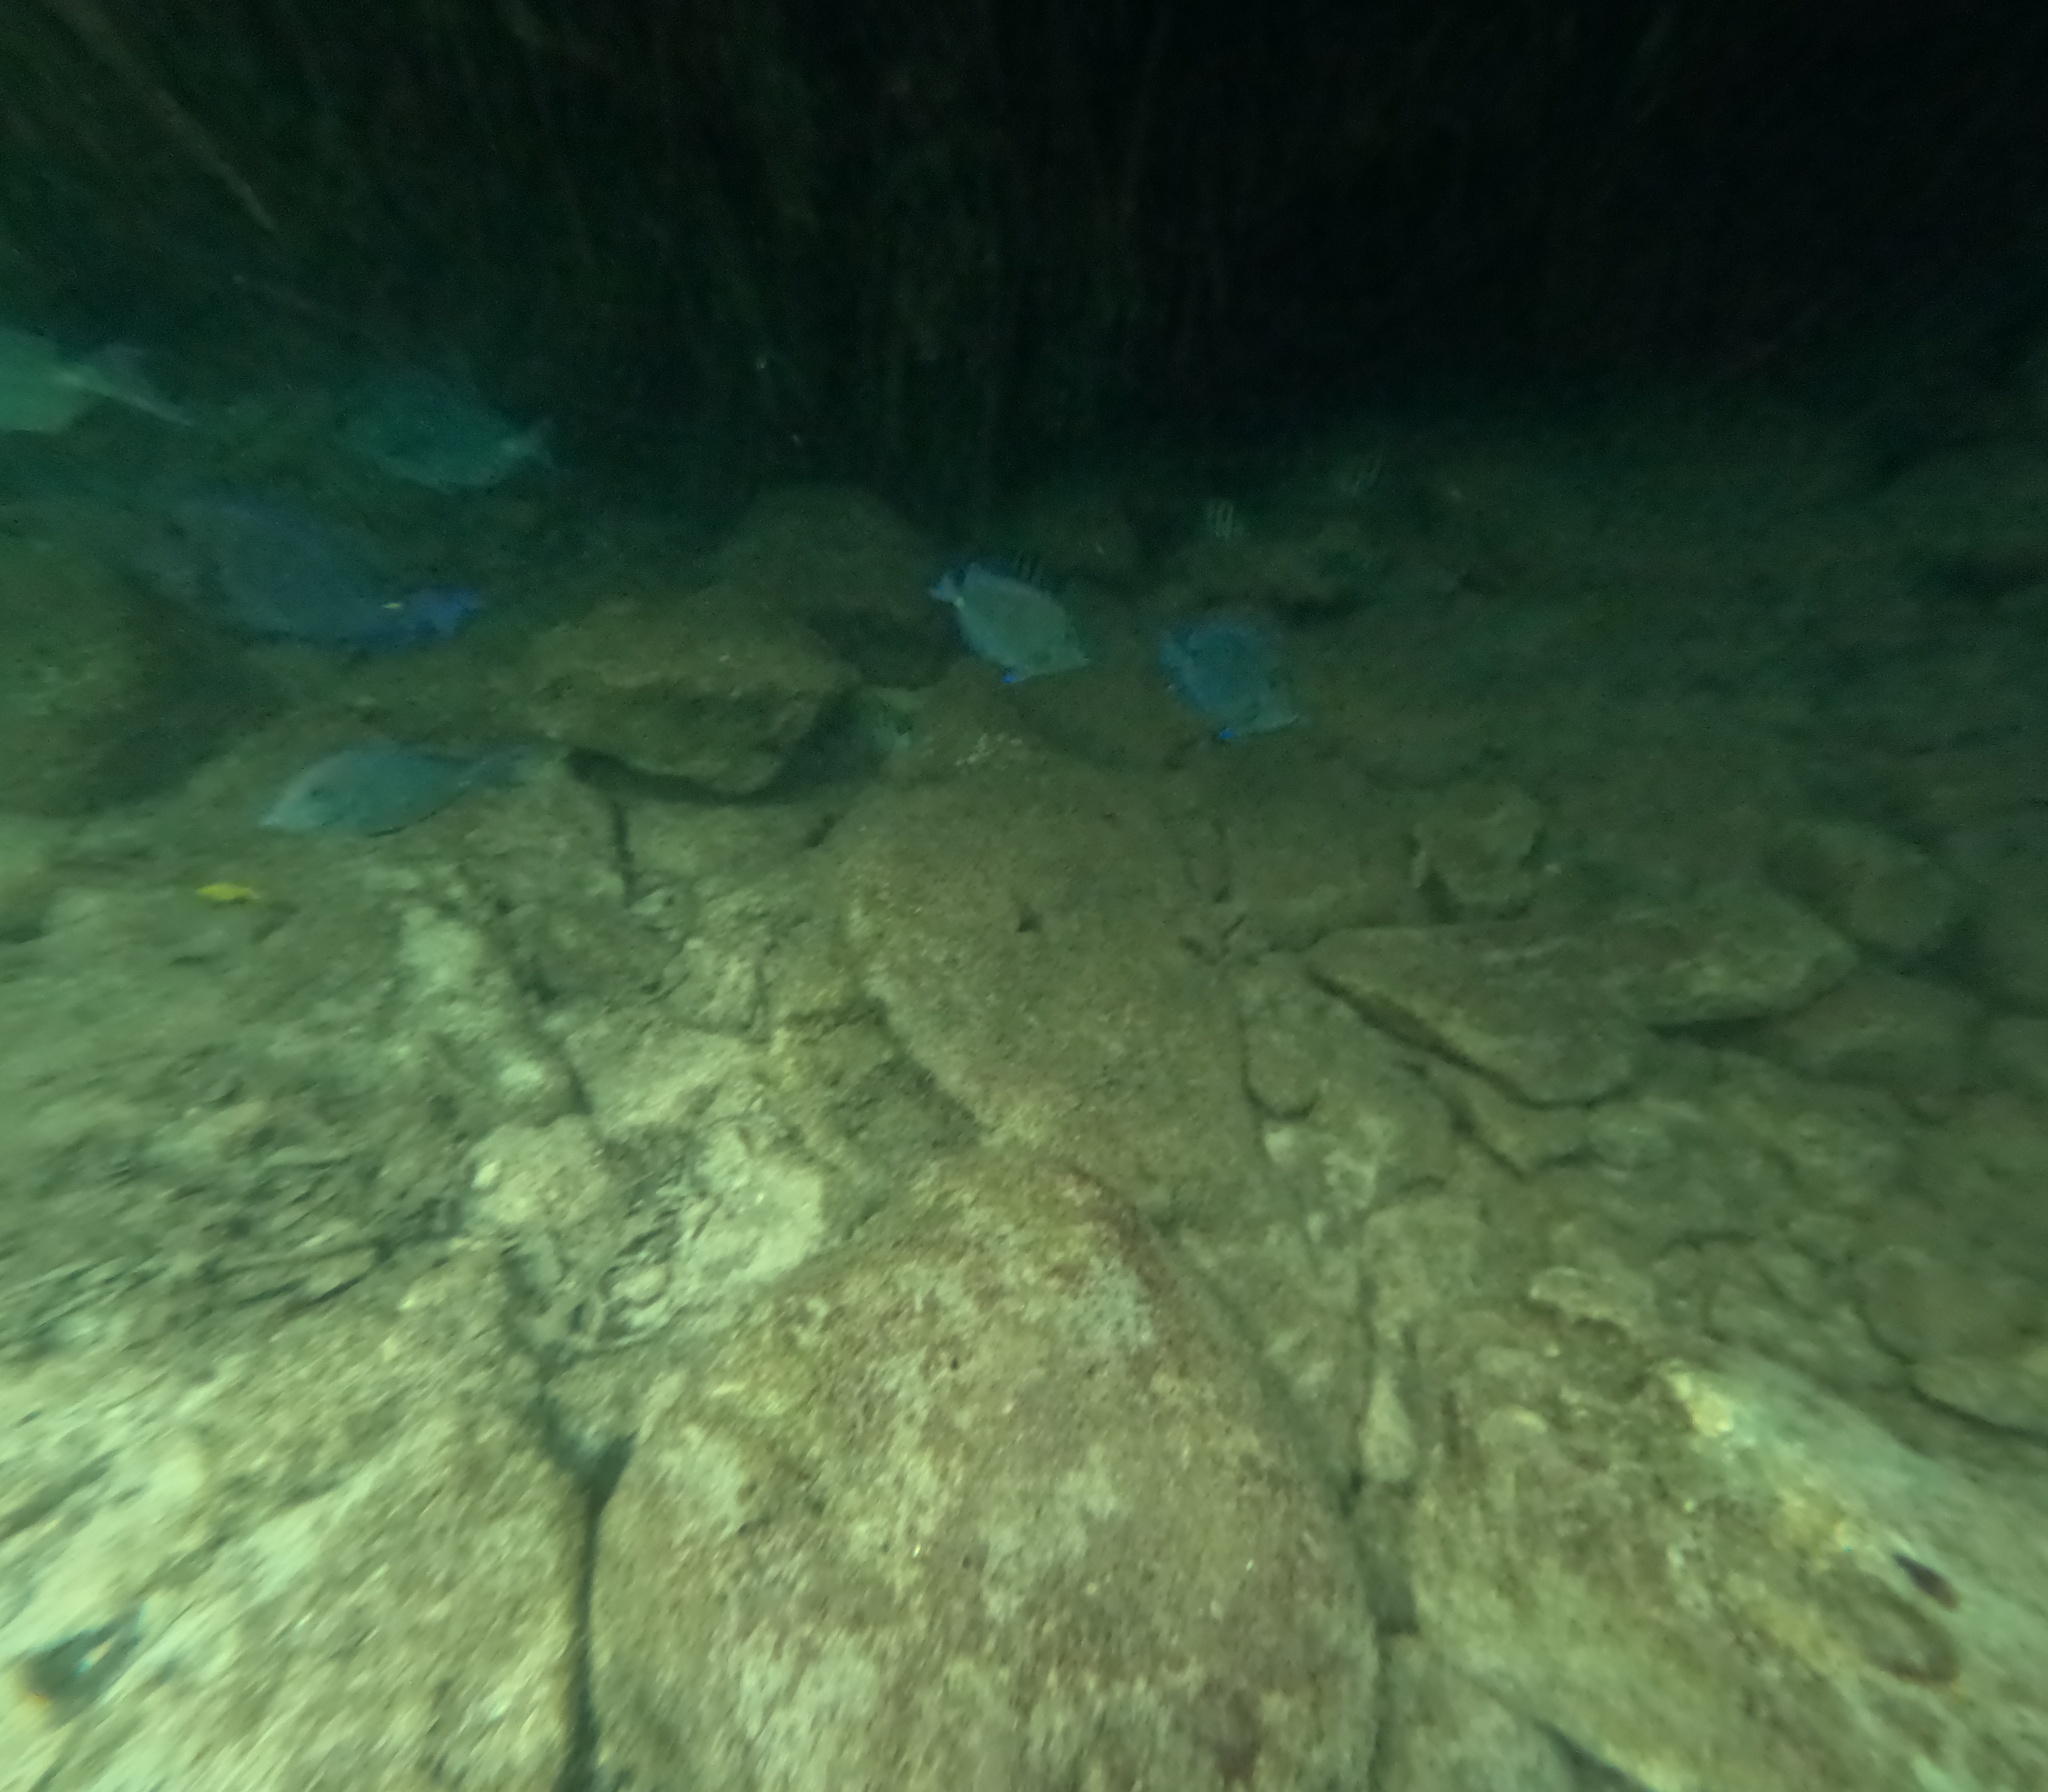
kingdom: Animalia
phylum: Chordata
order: Perciformes
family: Acanthuridae
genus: Acanthurus
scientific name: Acanthurus coeruleus
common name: Blue tang
